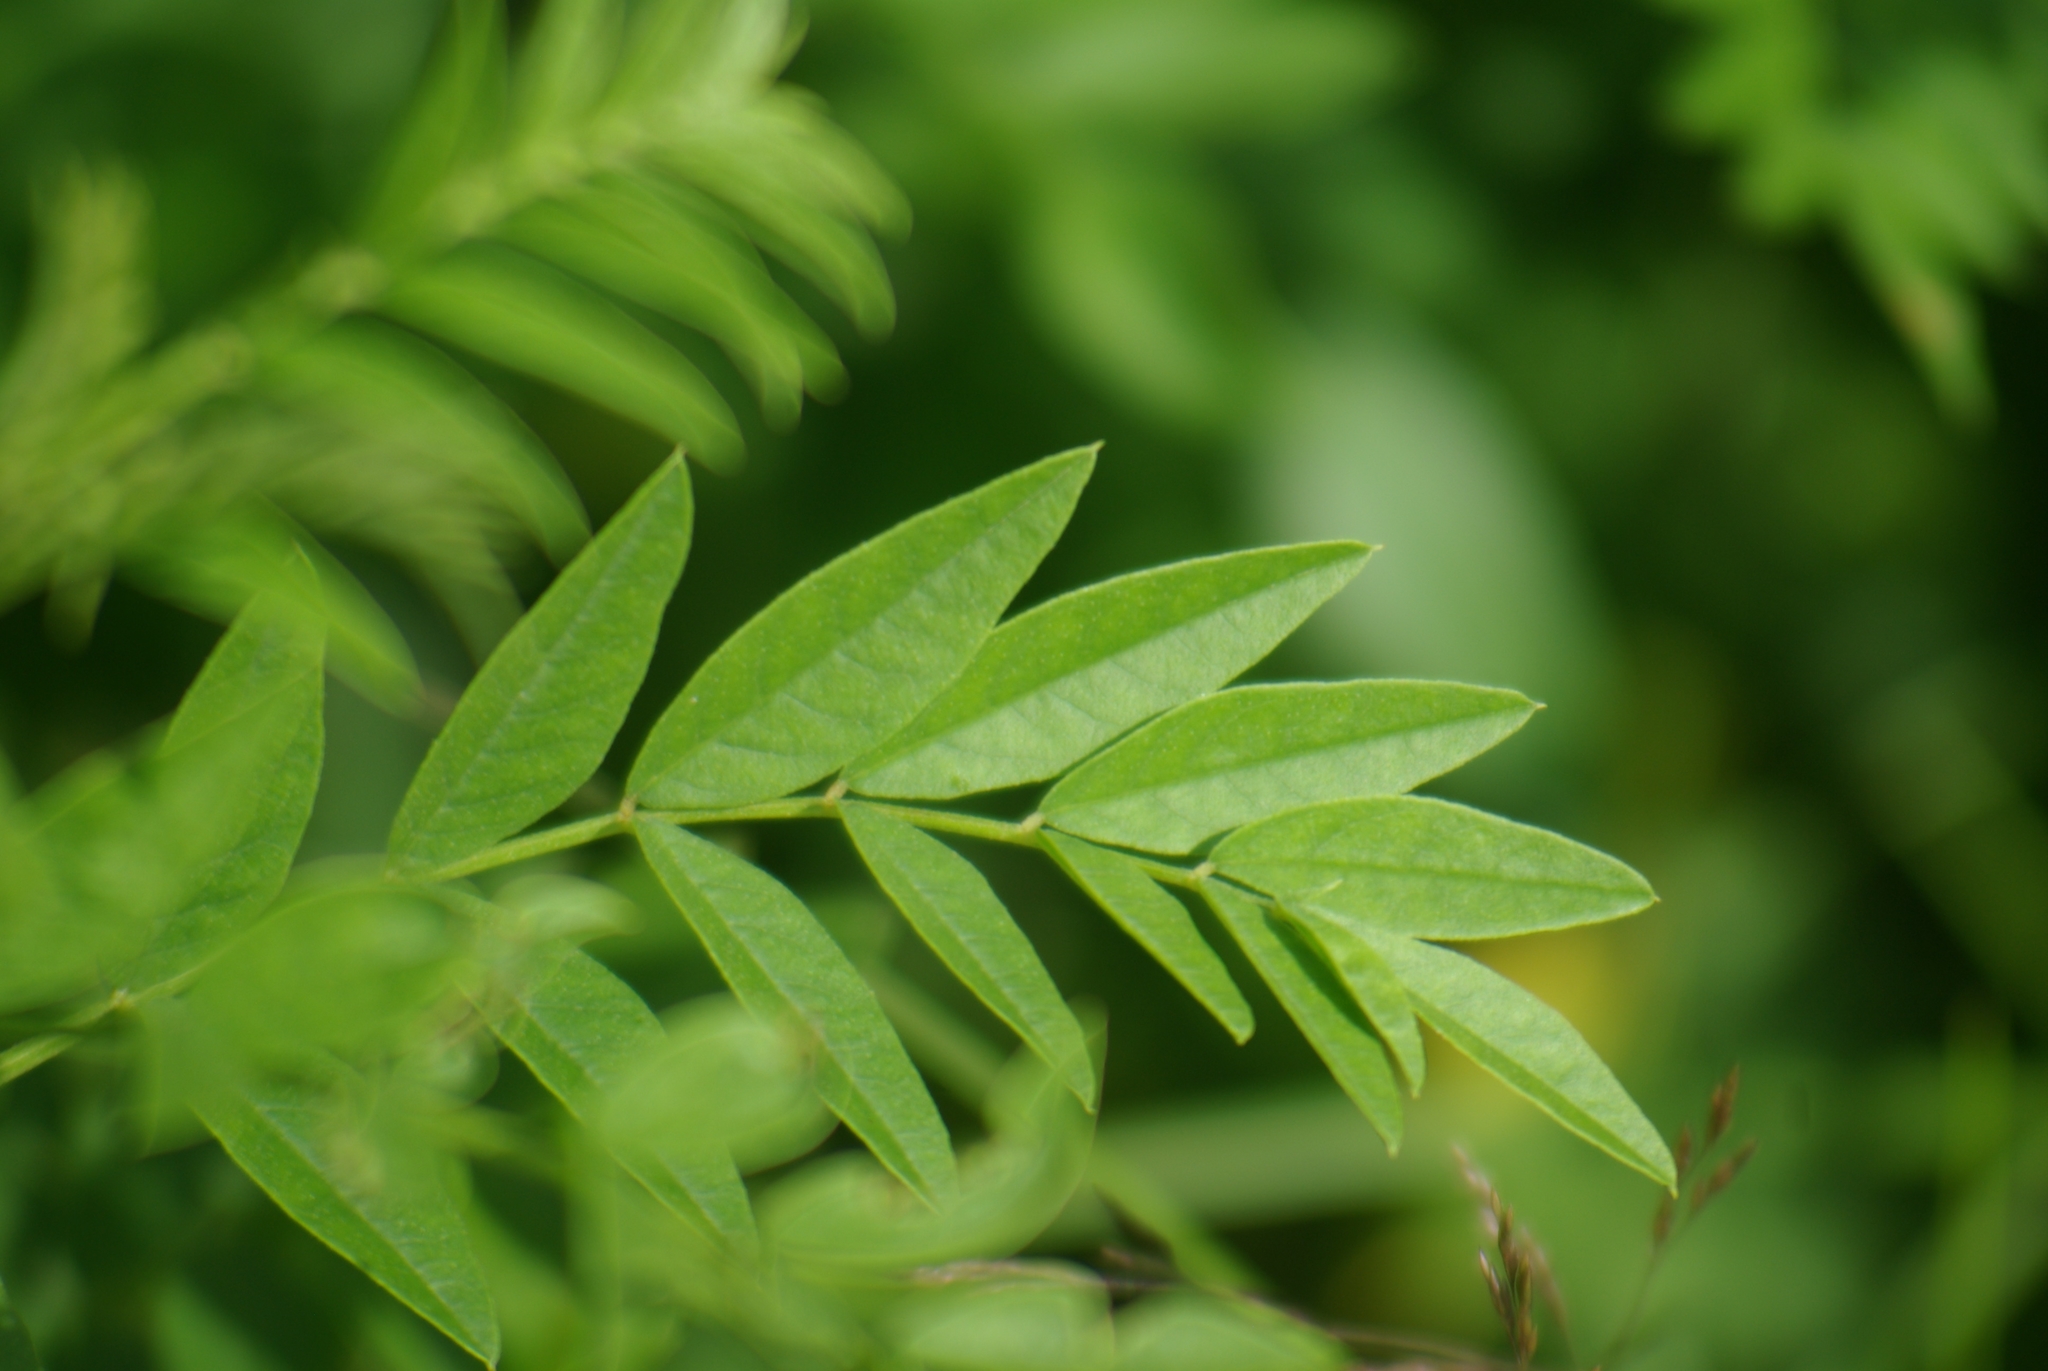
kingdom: Plantae
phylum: Tracheophyta
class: Magnoliopsida
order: Fabales
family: Fabaceae
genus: Glycyrrhiza
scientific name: Glycyrrhiza lepidota
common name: American liquorice
